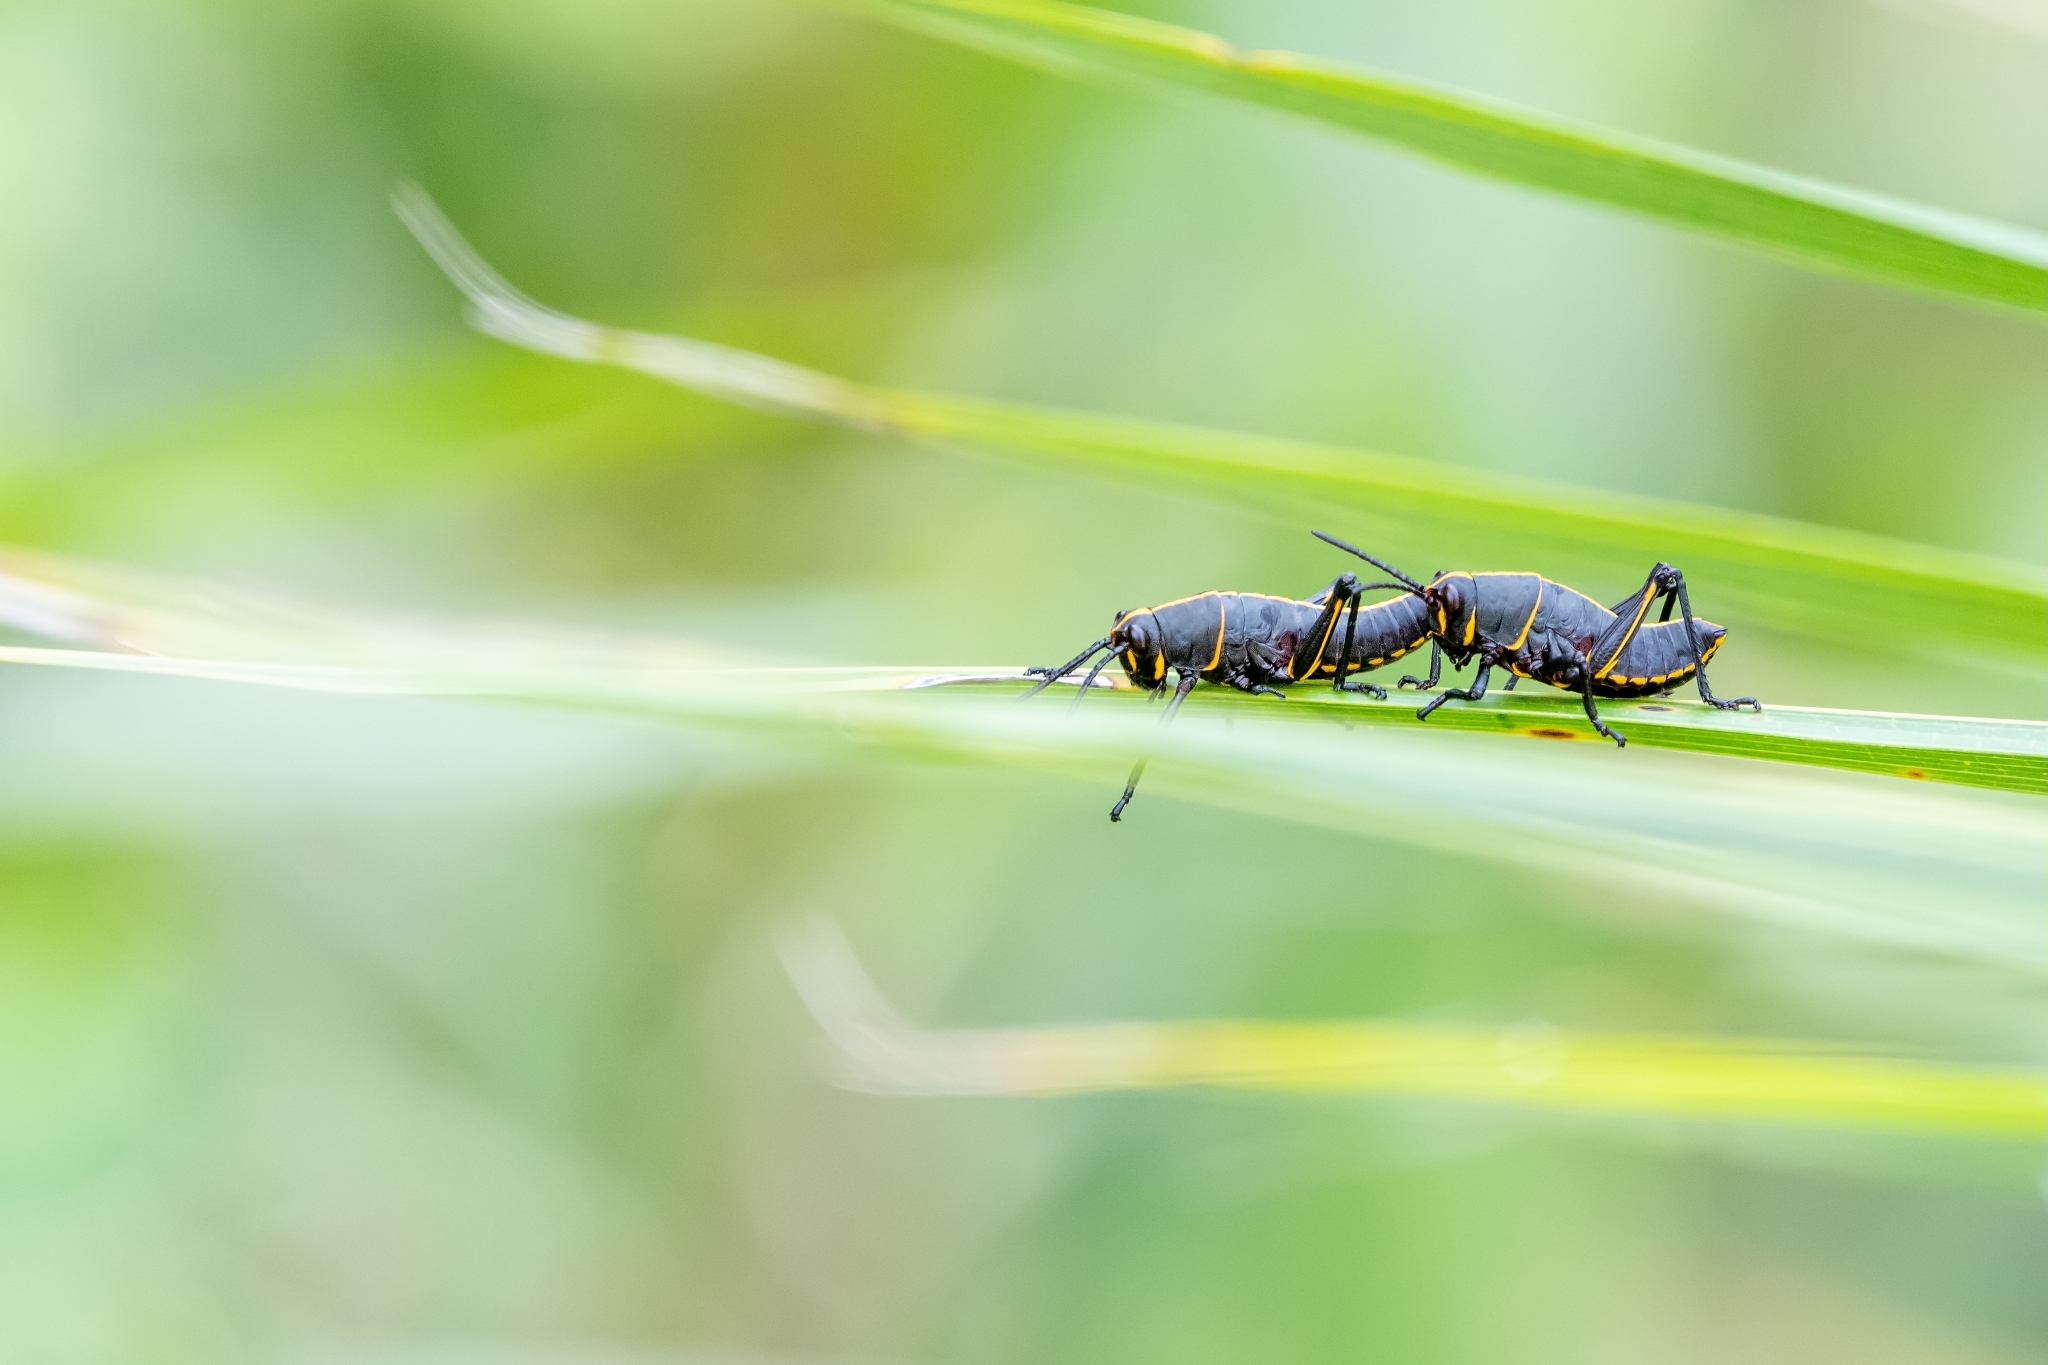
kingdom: Animalia
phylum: Arthropoda
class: Insecta
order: Orthoptera
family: Romaleidae
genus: Romalea
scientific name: Romalea microptera
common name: Eastern lubber grasshopper
